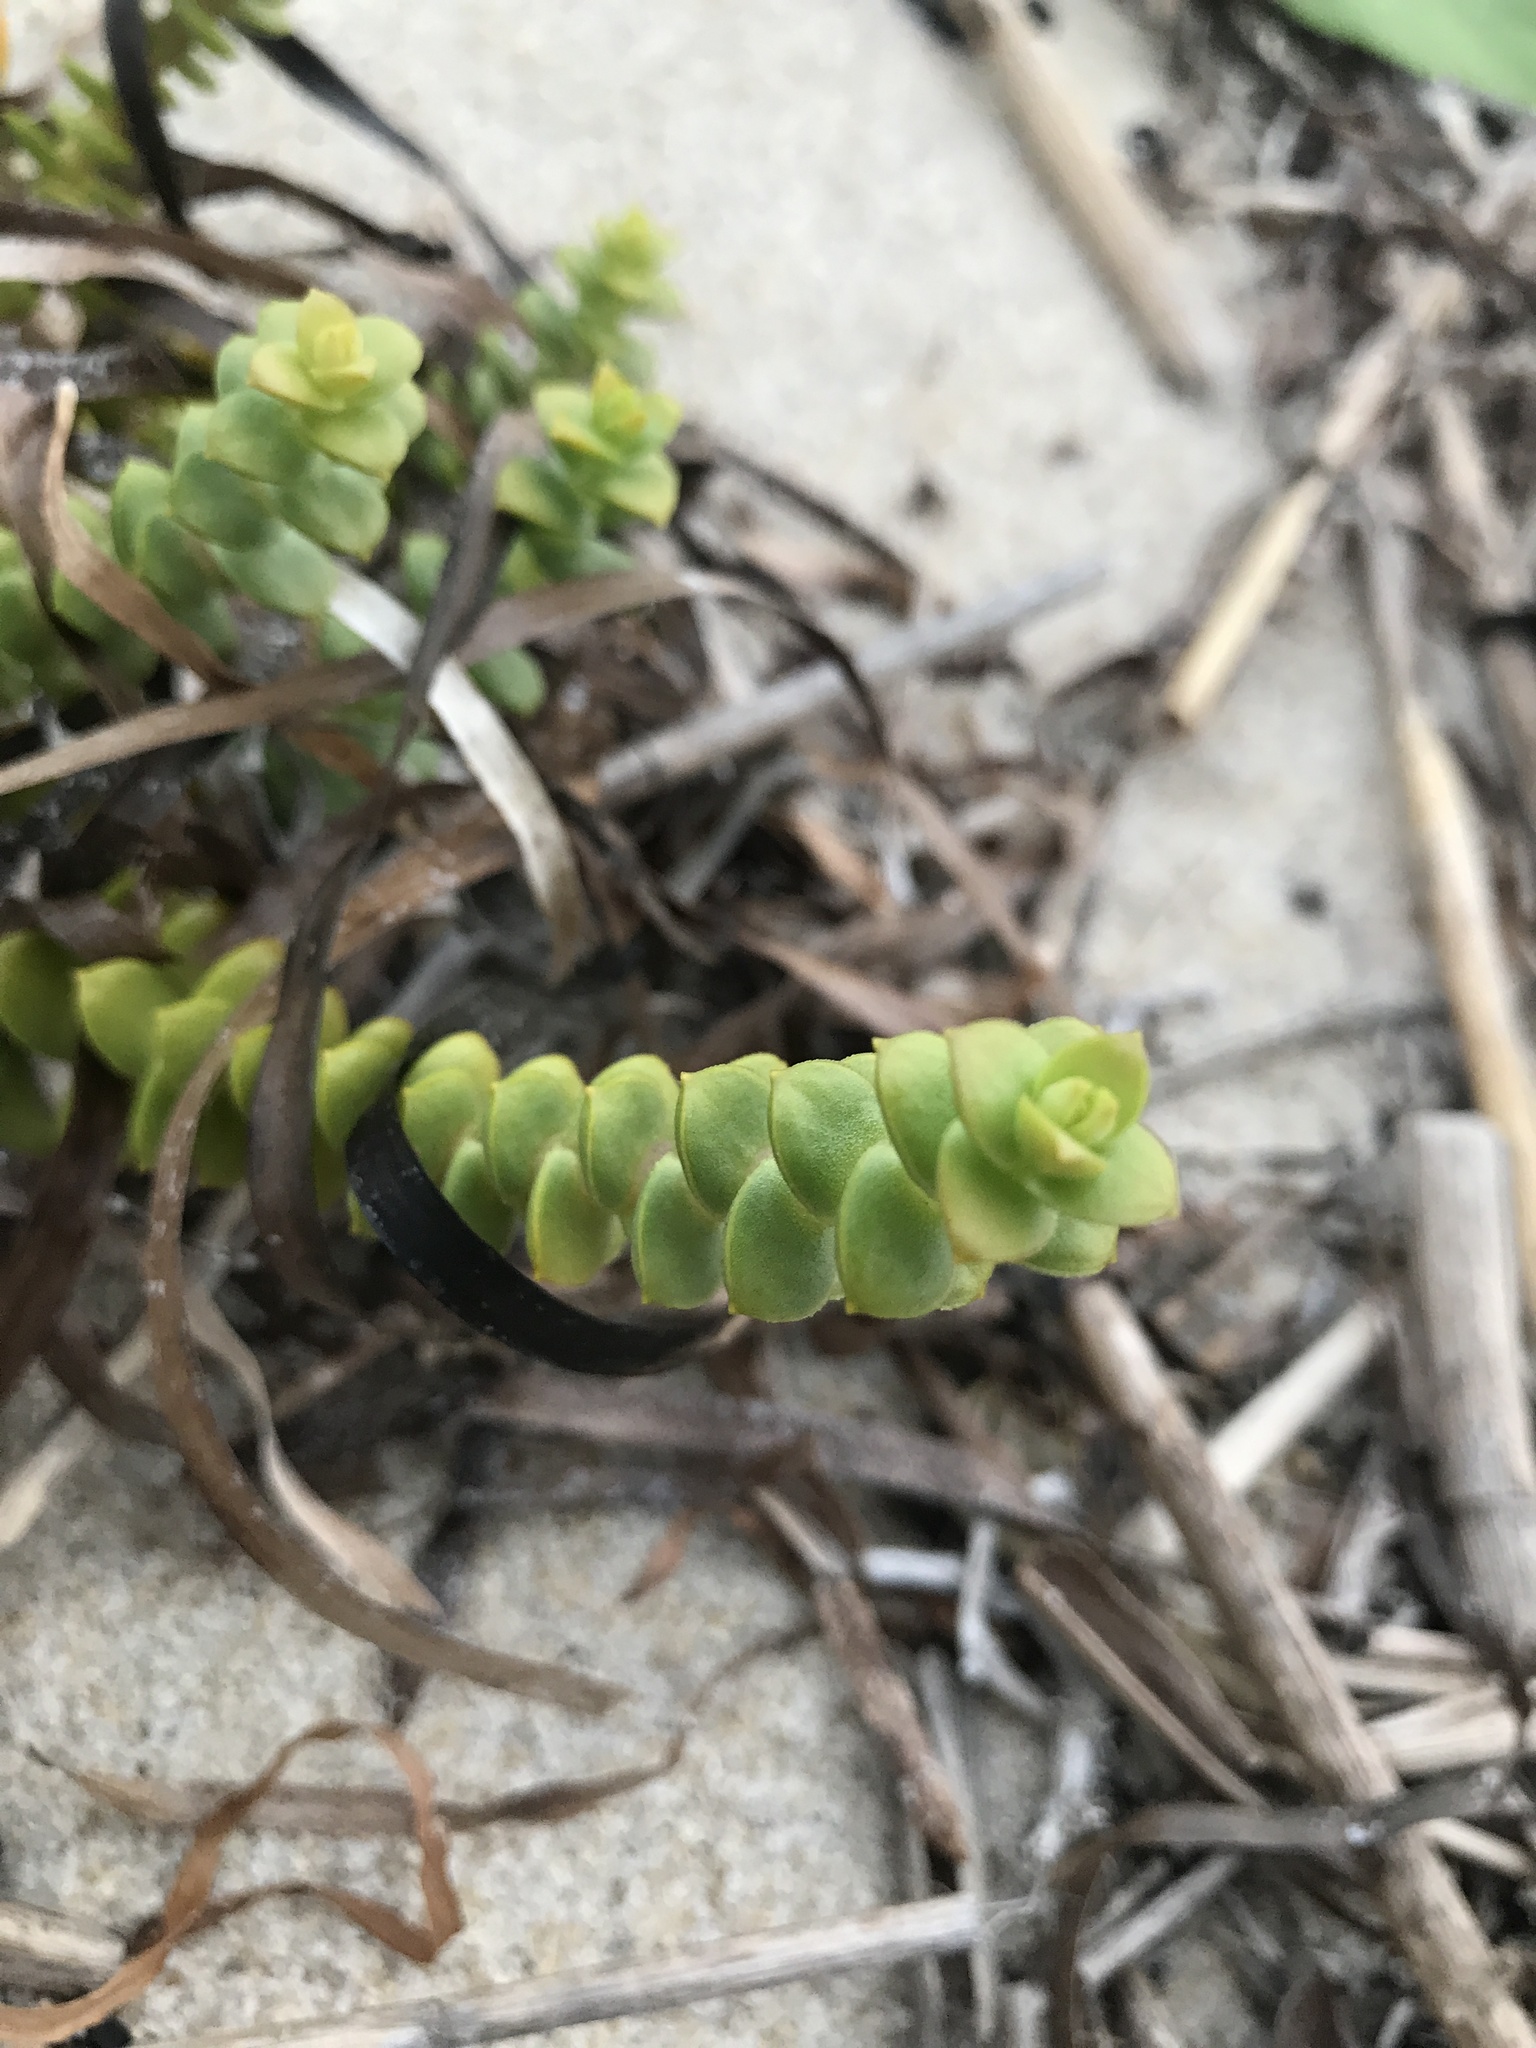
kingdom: Plantae
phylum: Tracheophyta
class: Magnoliopsida
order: Caryophyllales
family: Caryophyllaceae
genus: Honckenya
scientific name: Honckenya peploides
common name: Sea sandwort
